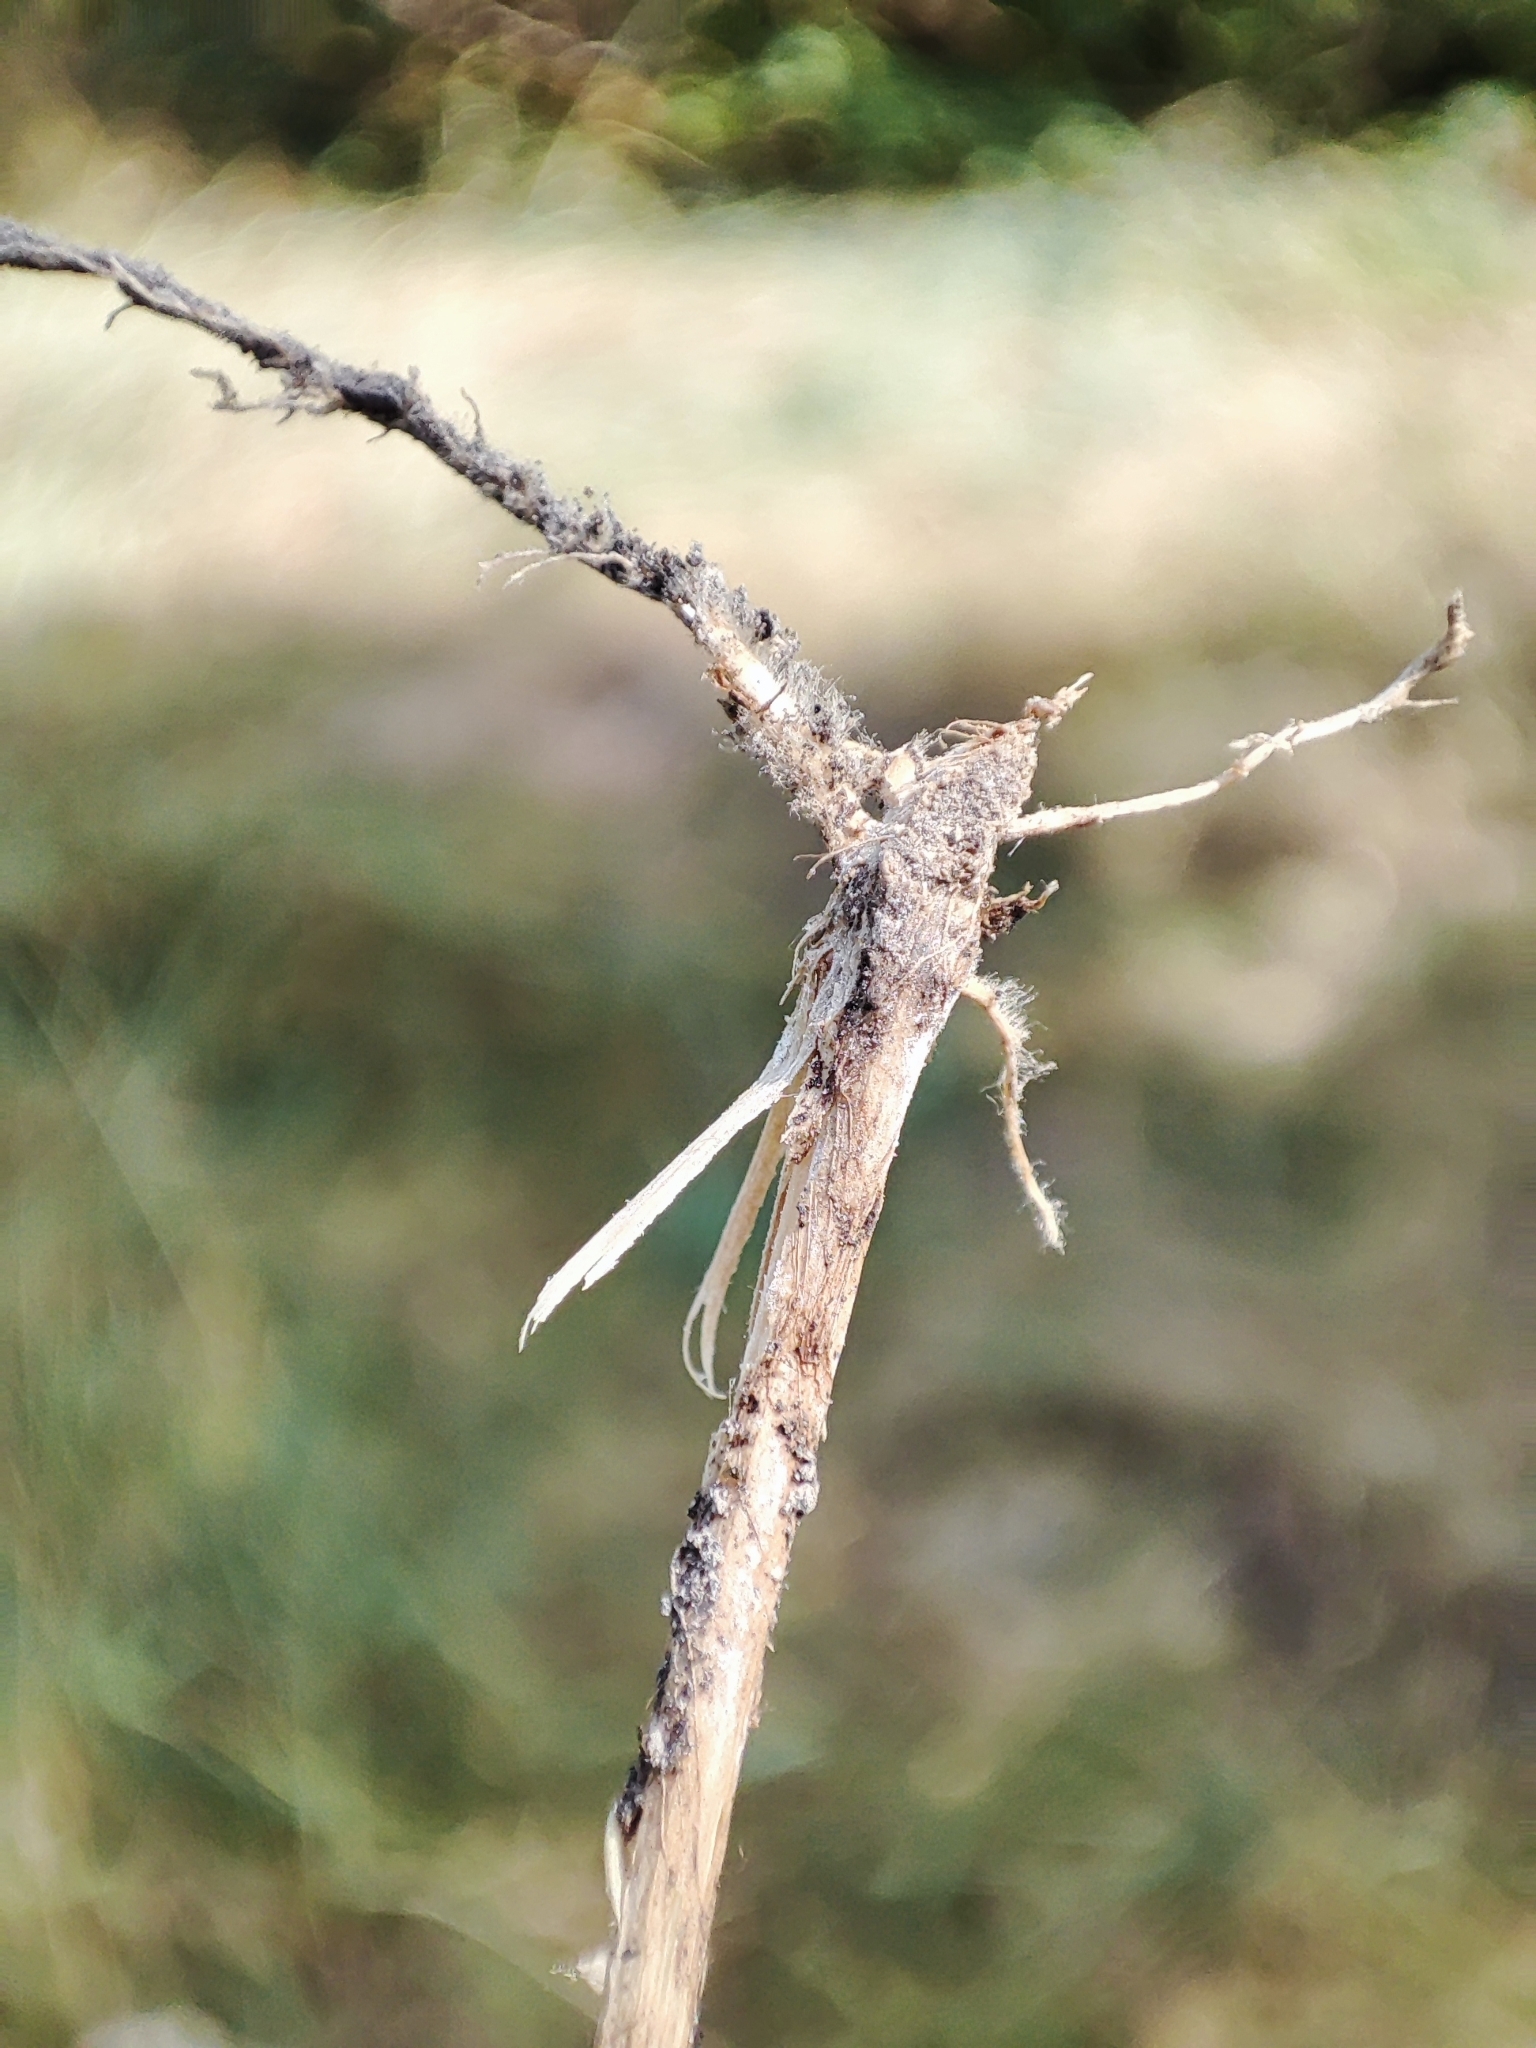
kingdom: Plantae
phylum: Tracheophyta
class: Liliopsida
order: Poales
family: Poaceae
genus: Agropyron
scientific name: Agropyron cristatum
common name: Crested wheatgrass
